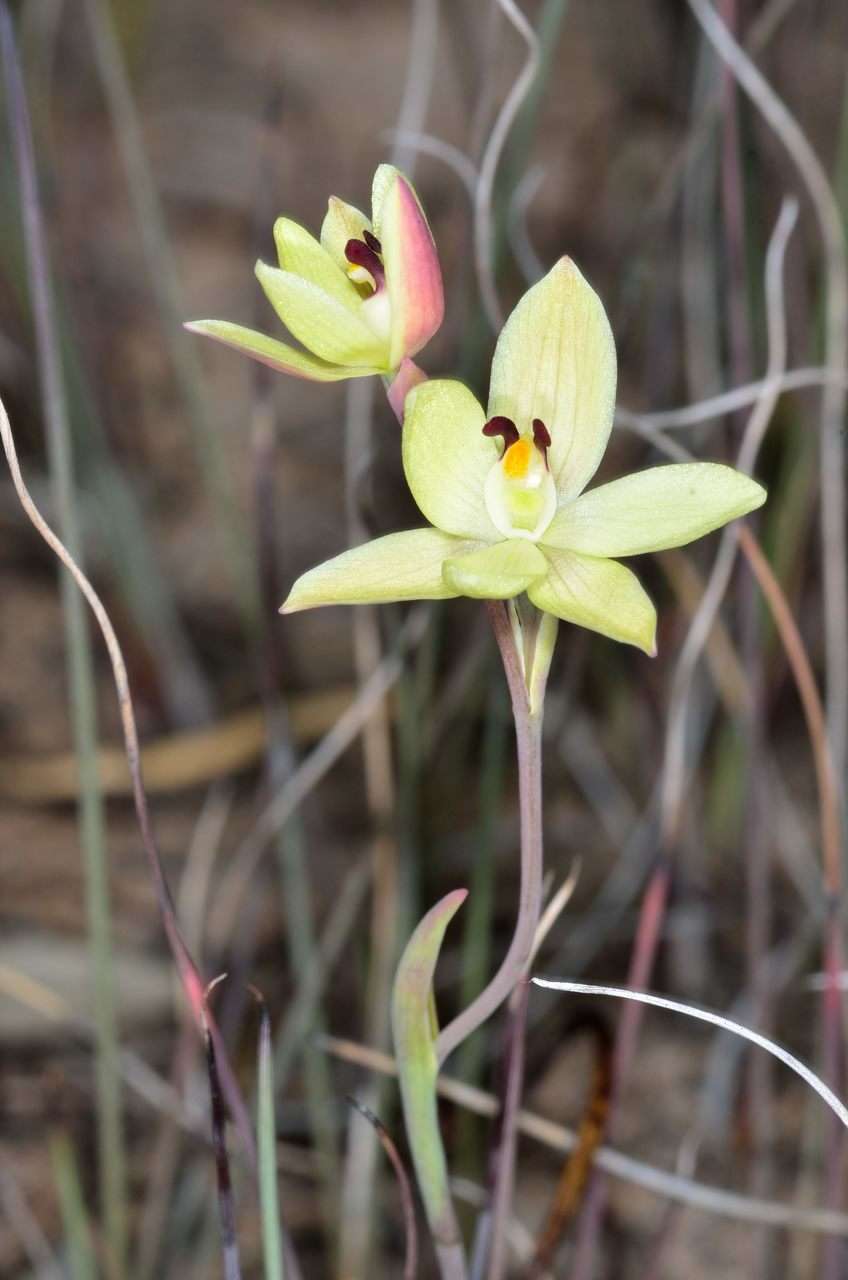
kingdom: Plantae
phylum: Tracheophyta
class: Liliopsida
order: Asparagales
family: Orchidaceae
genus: Thelymitra
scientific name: Thelymitra antennifera
